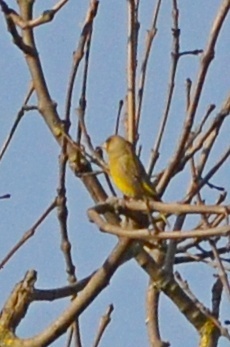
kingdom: Plantae
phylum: Tracheophyta
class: Liliopsida
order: Poales
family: Poaceae
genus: Chloris
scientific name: Chloris chloris
